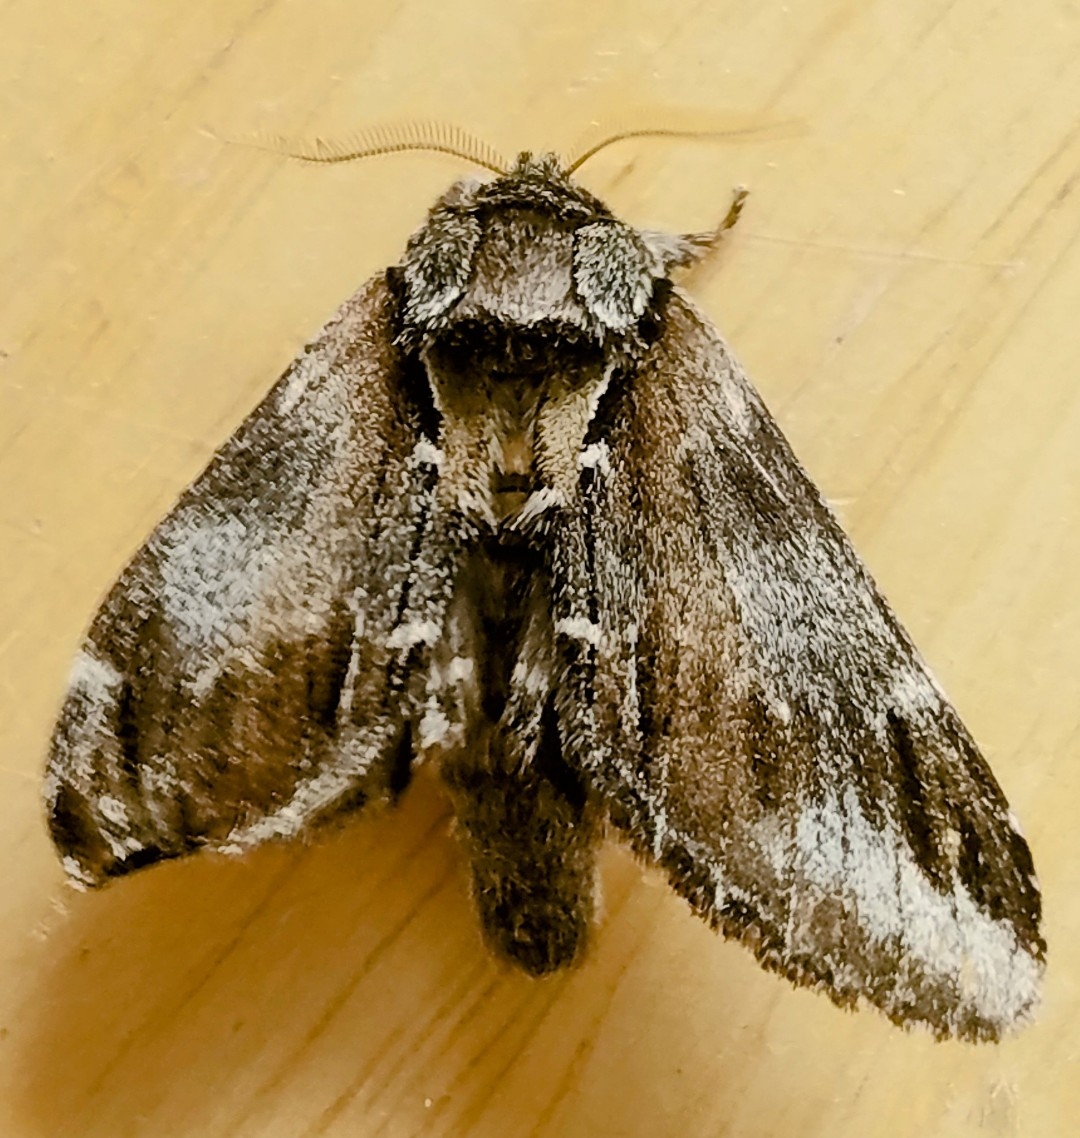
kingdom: Animalia
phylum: Arthropoda
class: Insecta
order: Lepidoptera
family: Notodontidae
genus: Pheosia
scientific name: Pheosia rimosa
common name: Black-rimmed prominent
